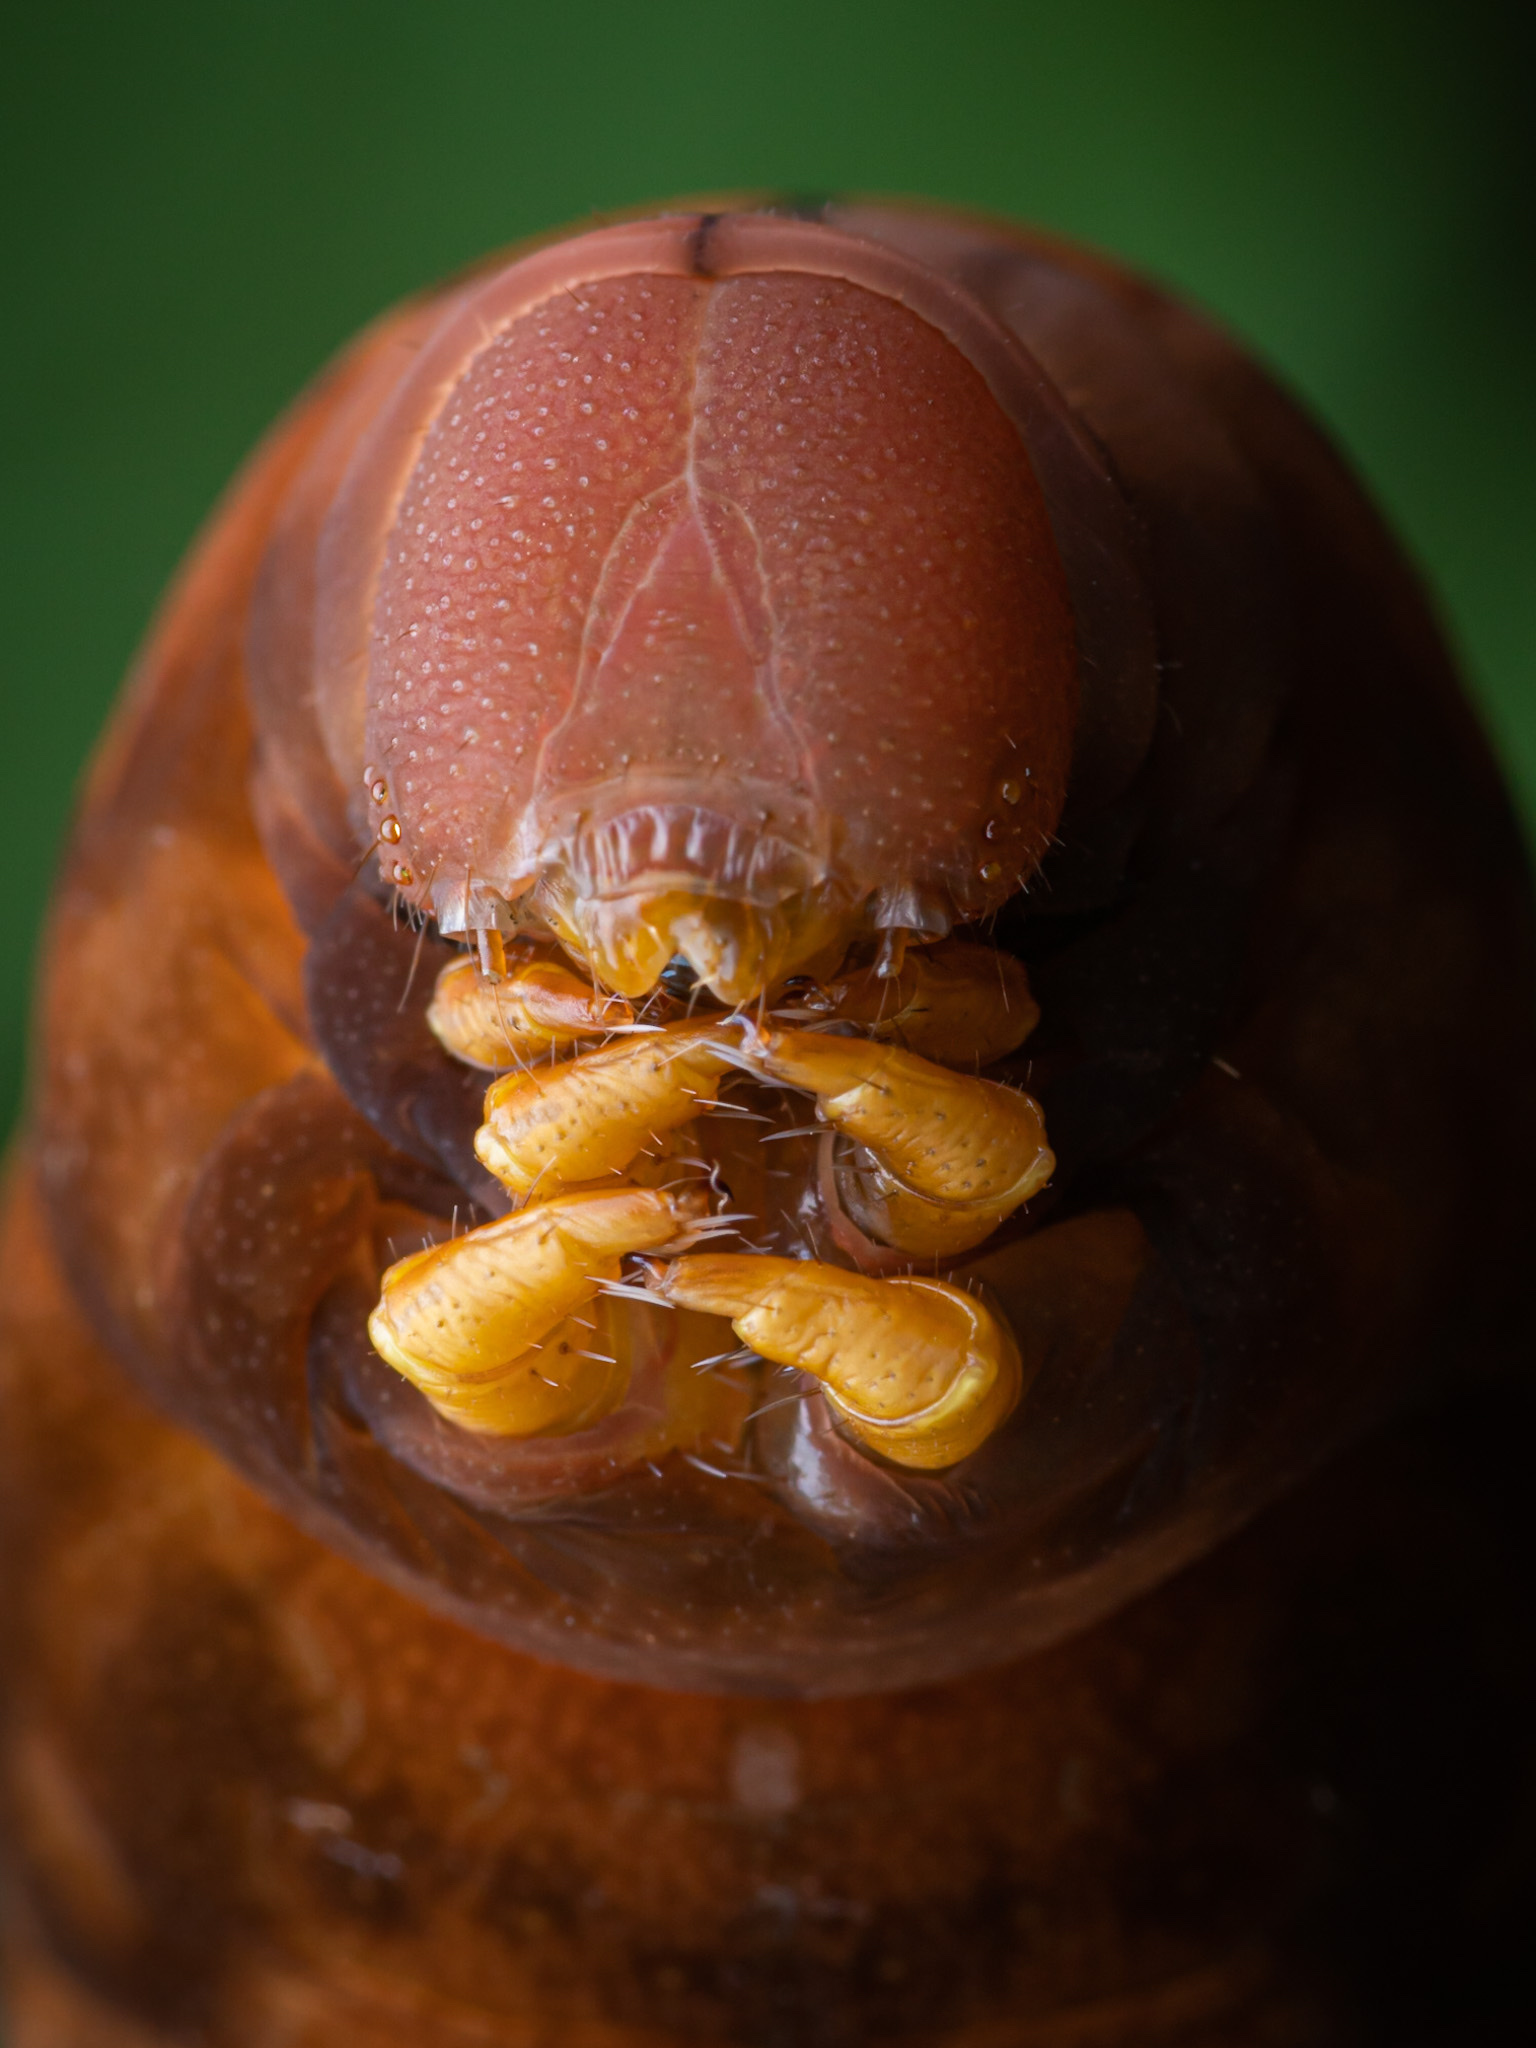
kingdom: Animalia
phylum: Arthropoda
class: Insecta
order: Lepidoptera
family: Sphingidae
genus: Theretra
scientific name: Theretra nessus
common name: Yam hawk moth
